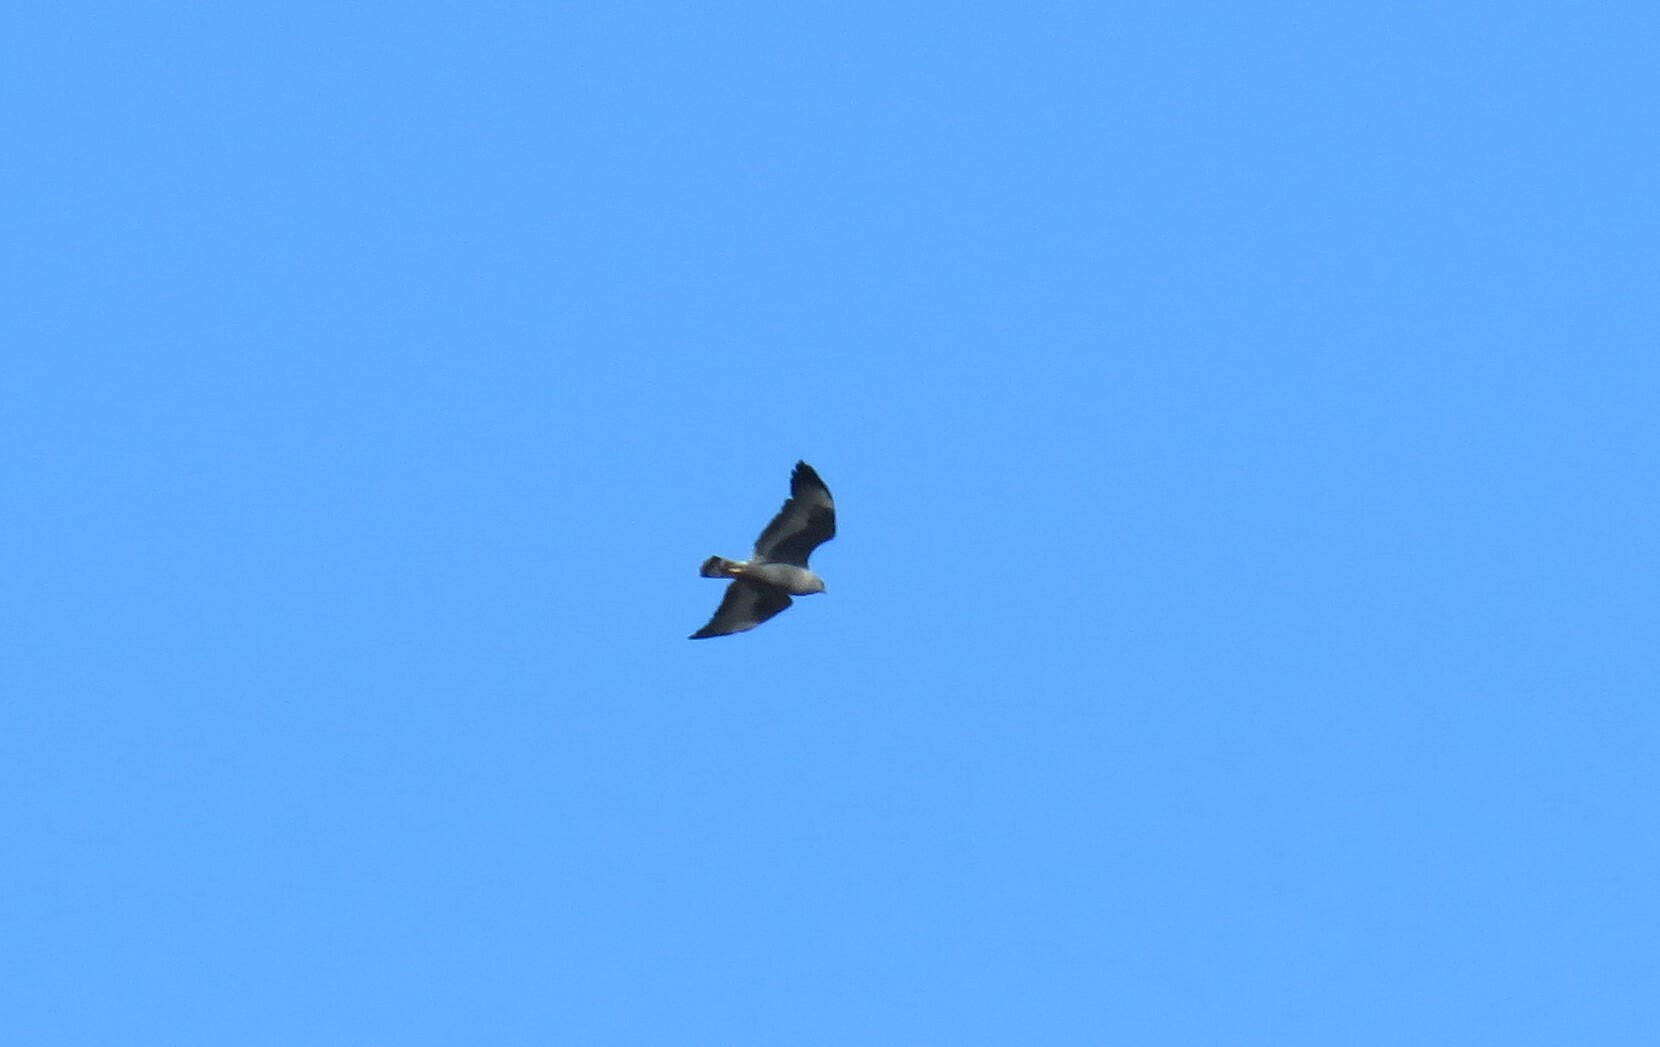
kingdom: Animalia
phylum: Chordata
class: Aves
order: Accipitriformes
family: Accipitridae
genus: Buteo
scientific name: Buteo polyosoma
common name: Variable hawk
